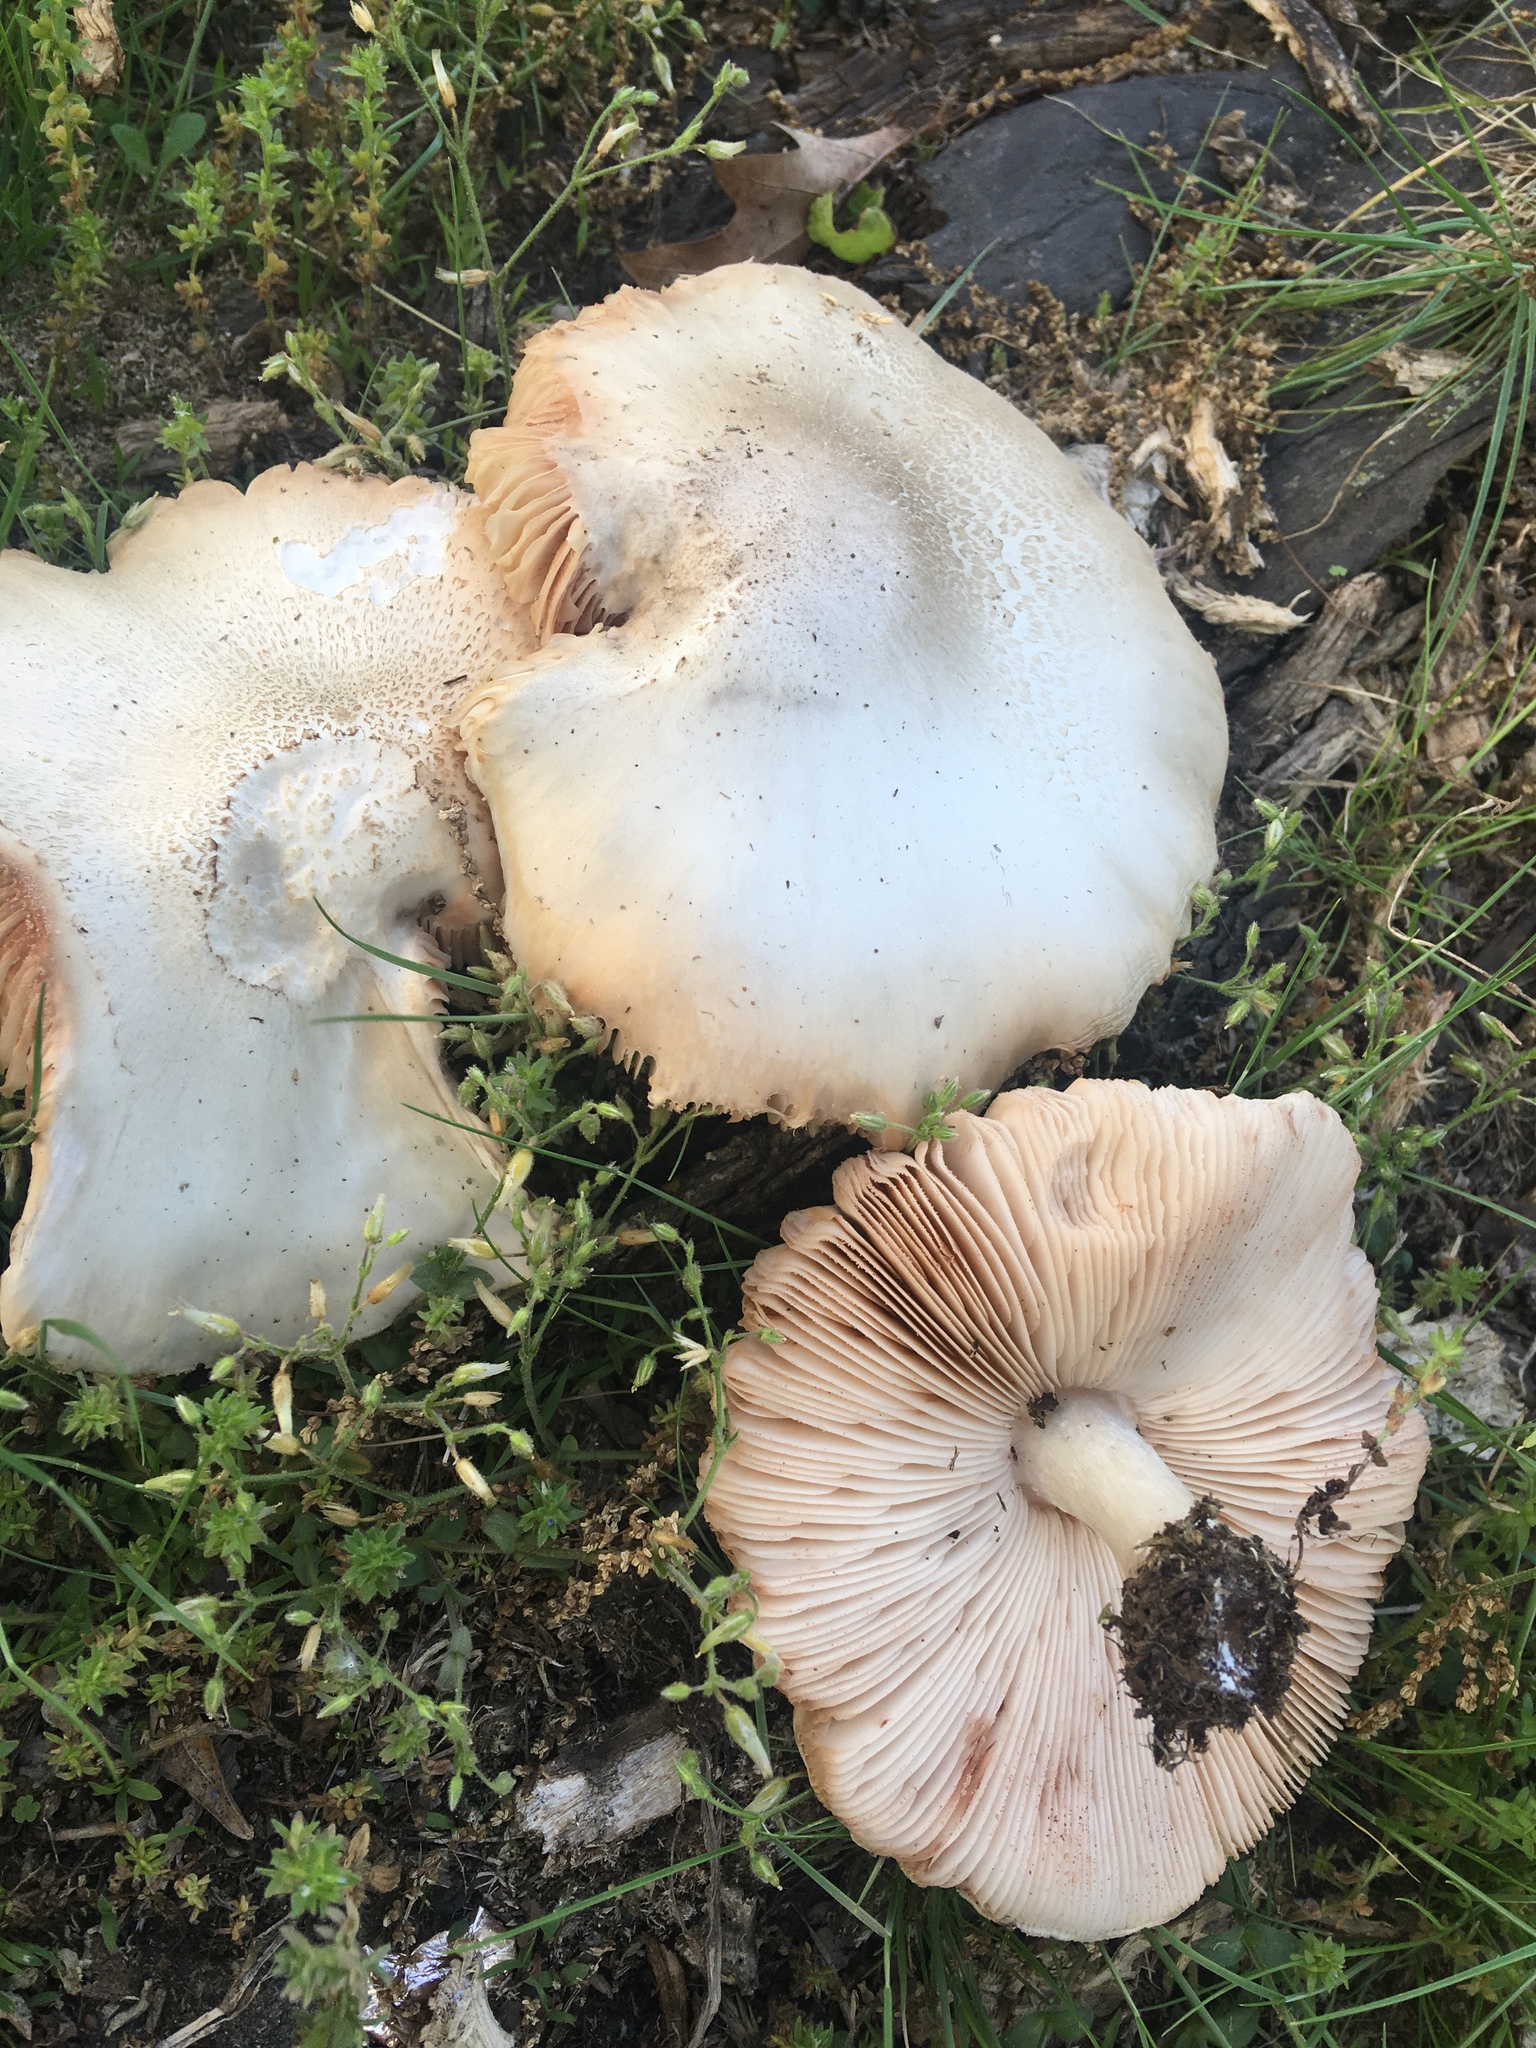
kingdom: Fungi
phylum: Basidiomycota
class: Agaricomycetes
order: Agaricales
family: Pluteaceae
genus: Pluteus
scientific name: Pluteus petasatus
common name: Scaly shield
